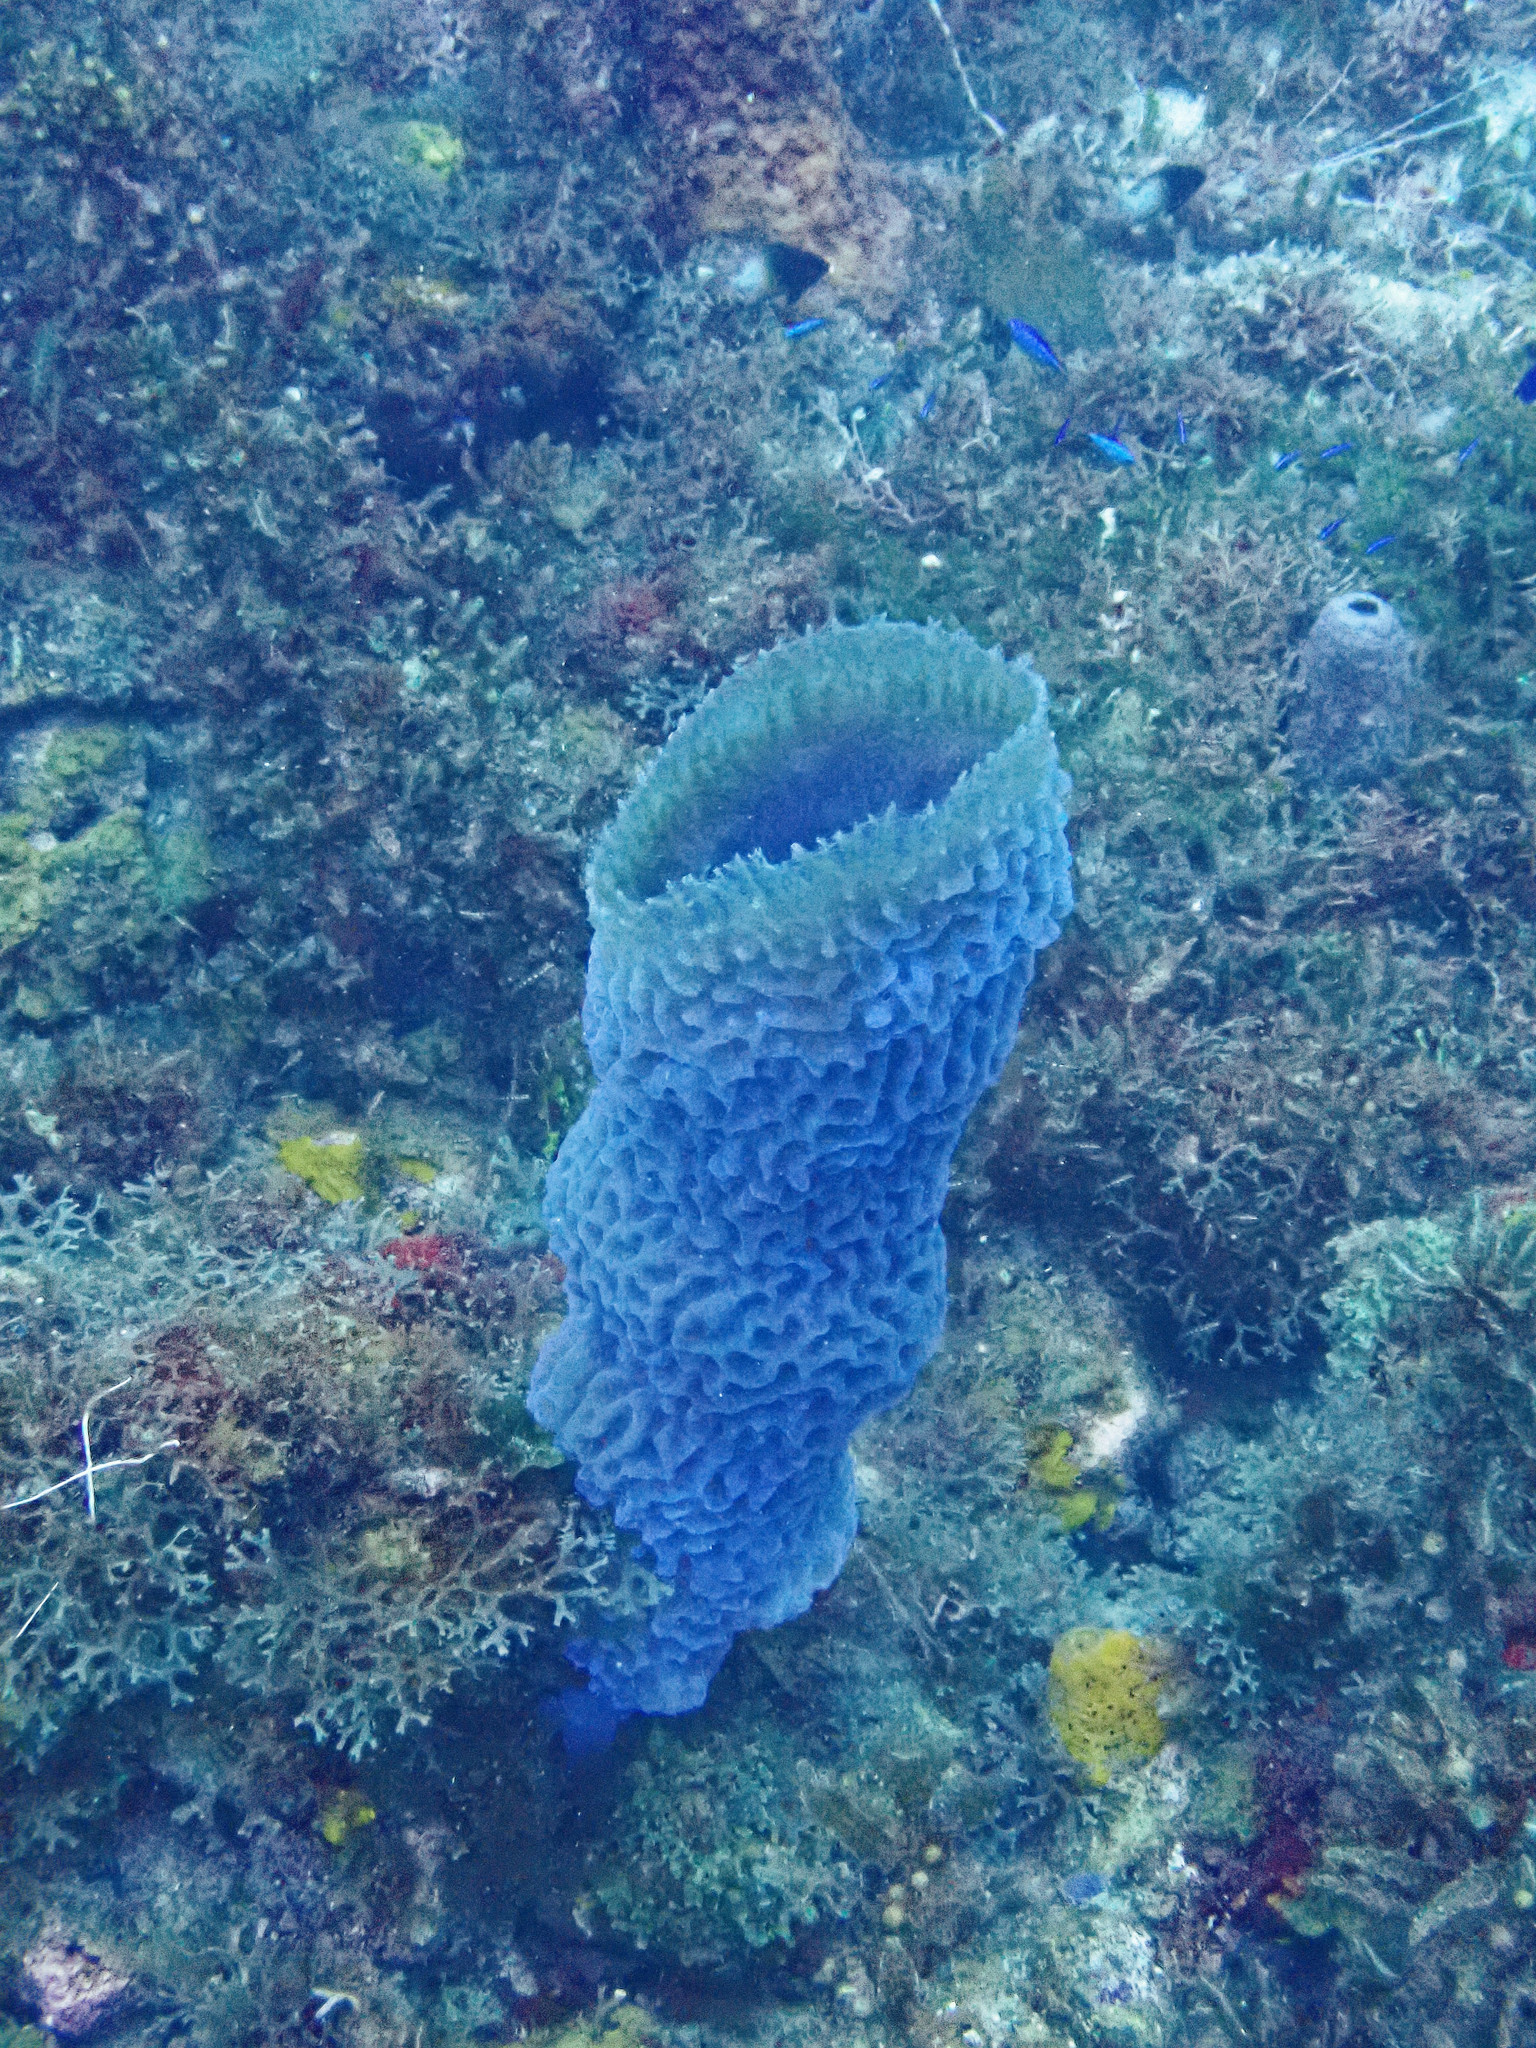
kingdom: Animalia
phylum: Porifera
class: Demospongiae
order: Haplosclerida
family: Callyspongiidae
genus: Callyspongia
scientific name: Callyspongia plicifera
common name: Azure vase sponge
